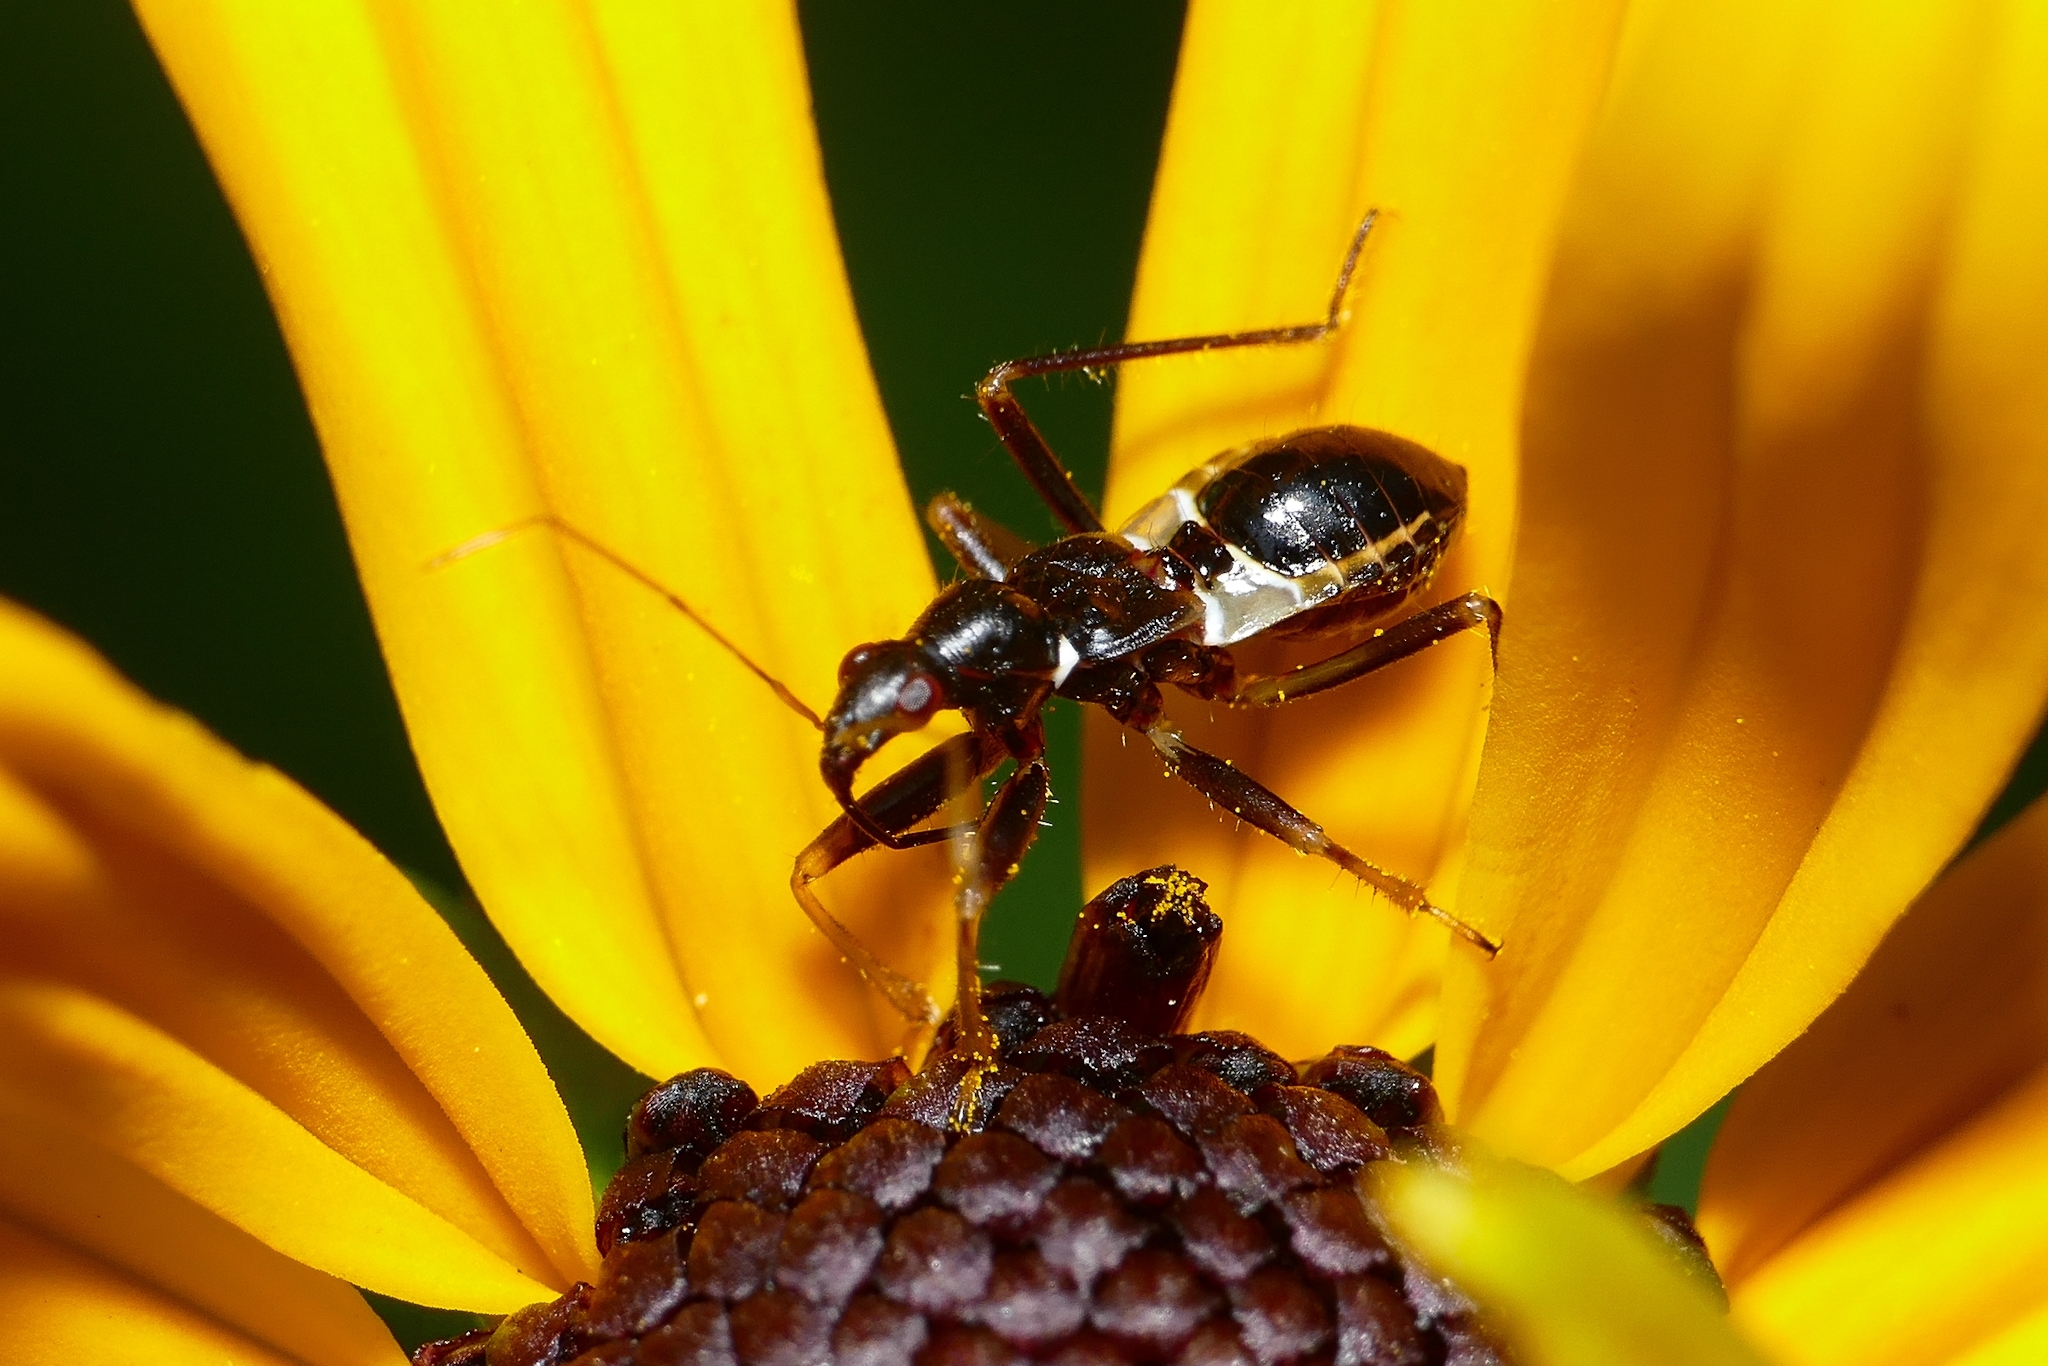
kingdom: Animalia
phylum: Arthropoda
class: Insecta
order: Hemiptera
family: Nabidae
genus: Himacerus
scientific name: Himacerus mirmicoides
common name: Ant damsel bug
